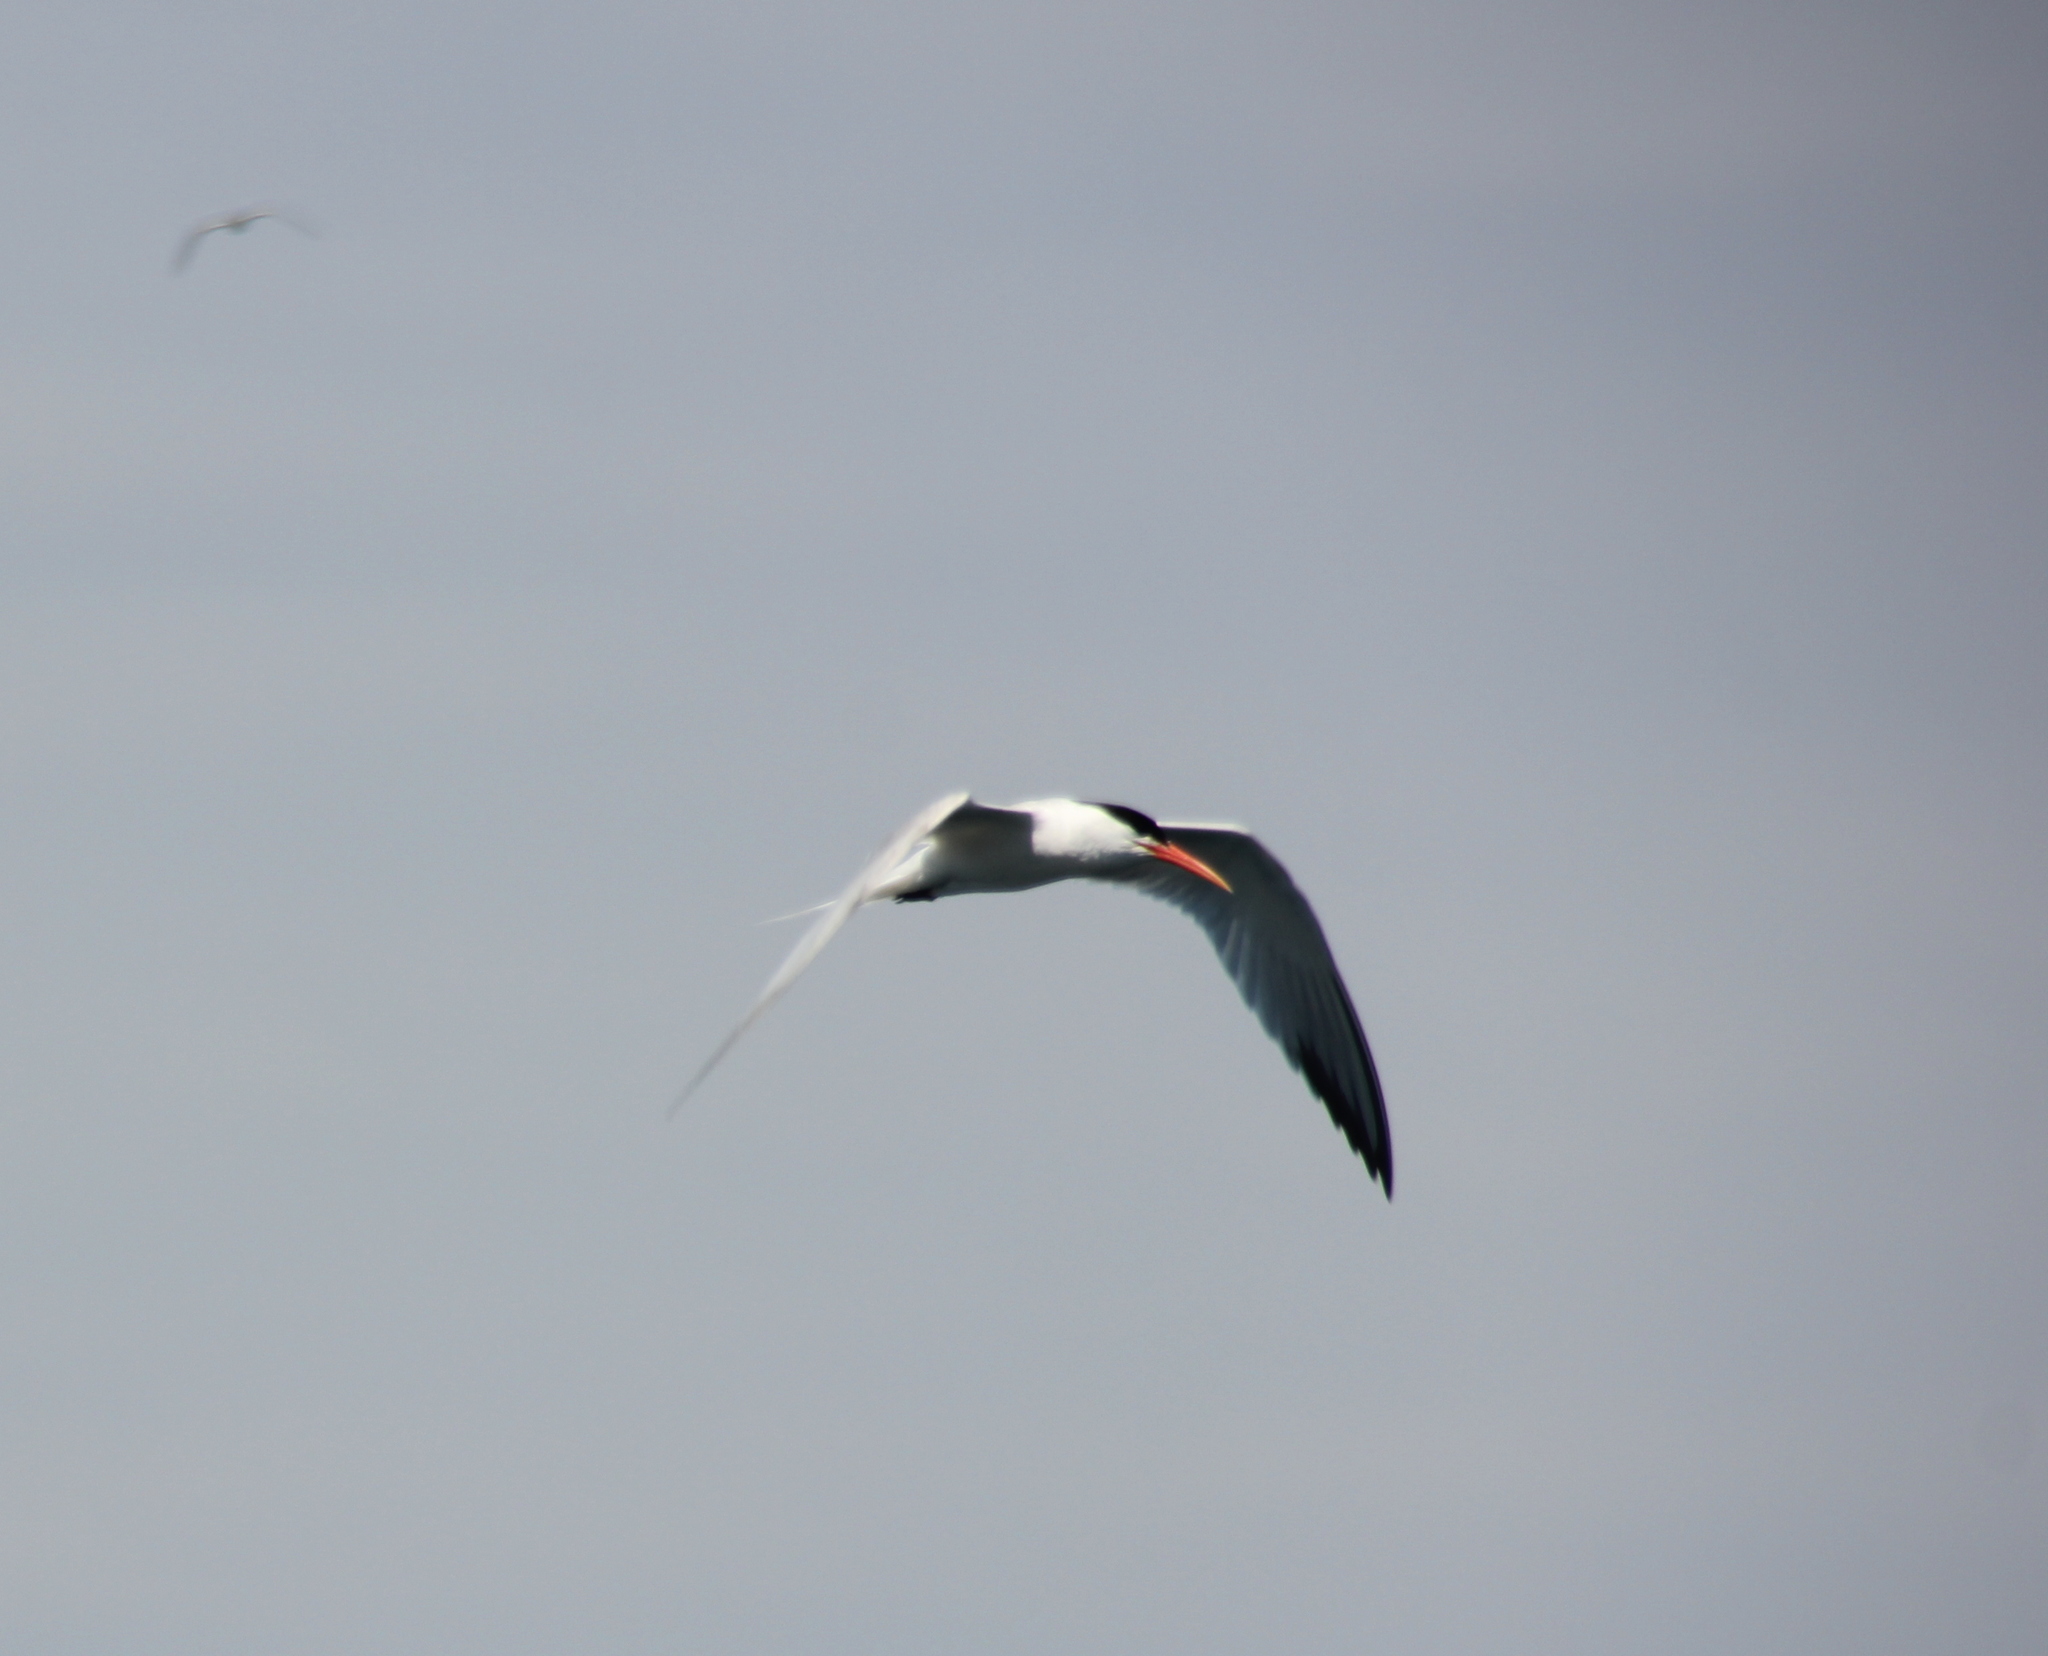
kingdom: Animalia
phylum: Chordata
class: Aves
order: Charadriiformes
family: Laridae
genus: Thalasseus
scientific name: Thalasseus elegans
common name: Elegant tern
